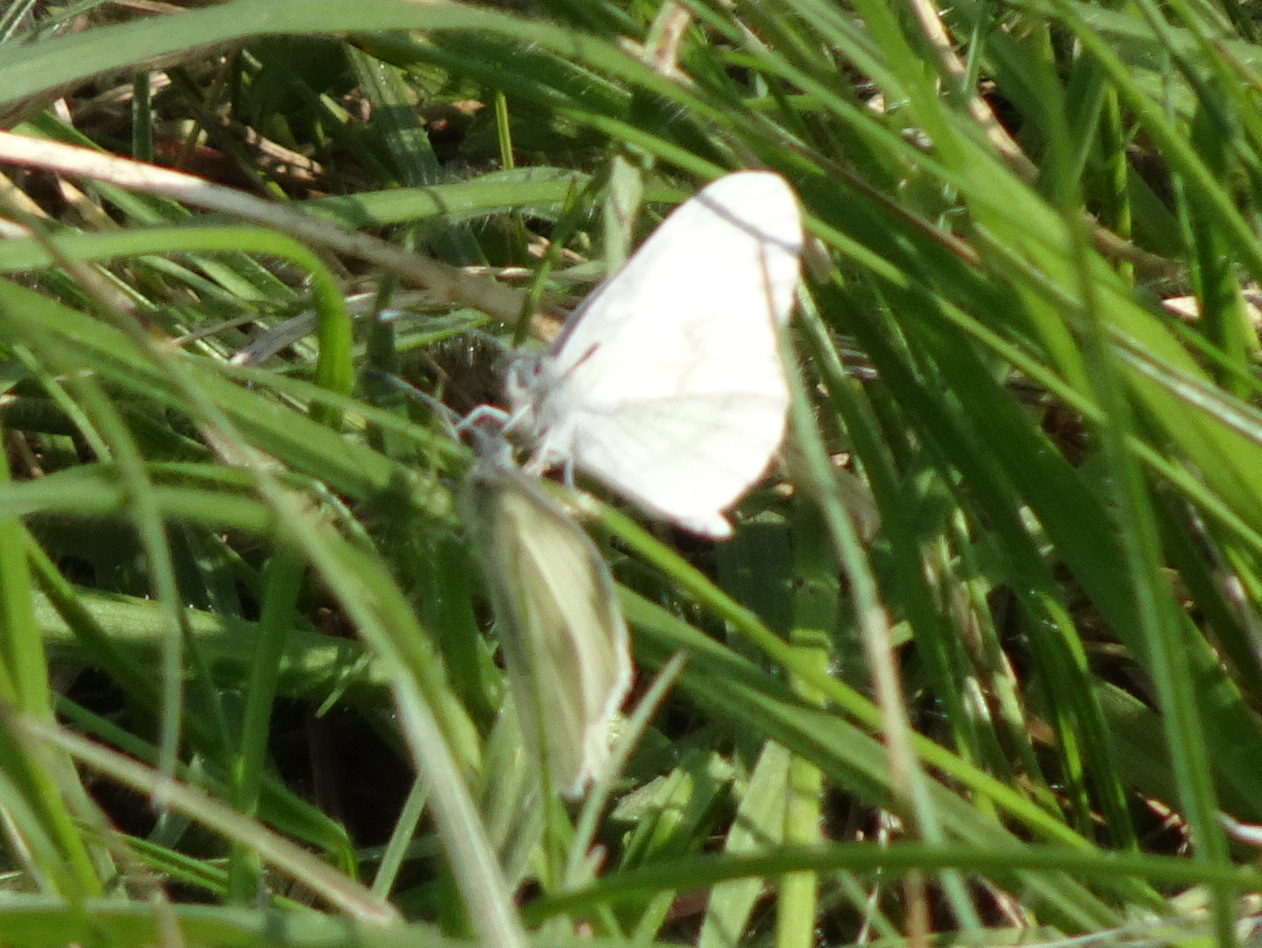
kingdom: Animalia
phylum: Arthropoda
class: Insecta
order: Lepidoptera
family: Pieridae
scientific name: Pieridae
